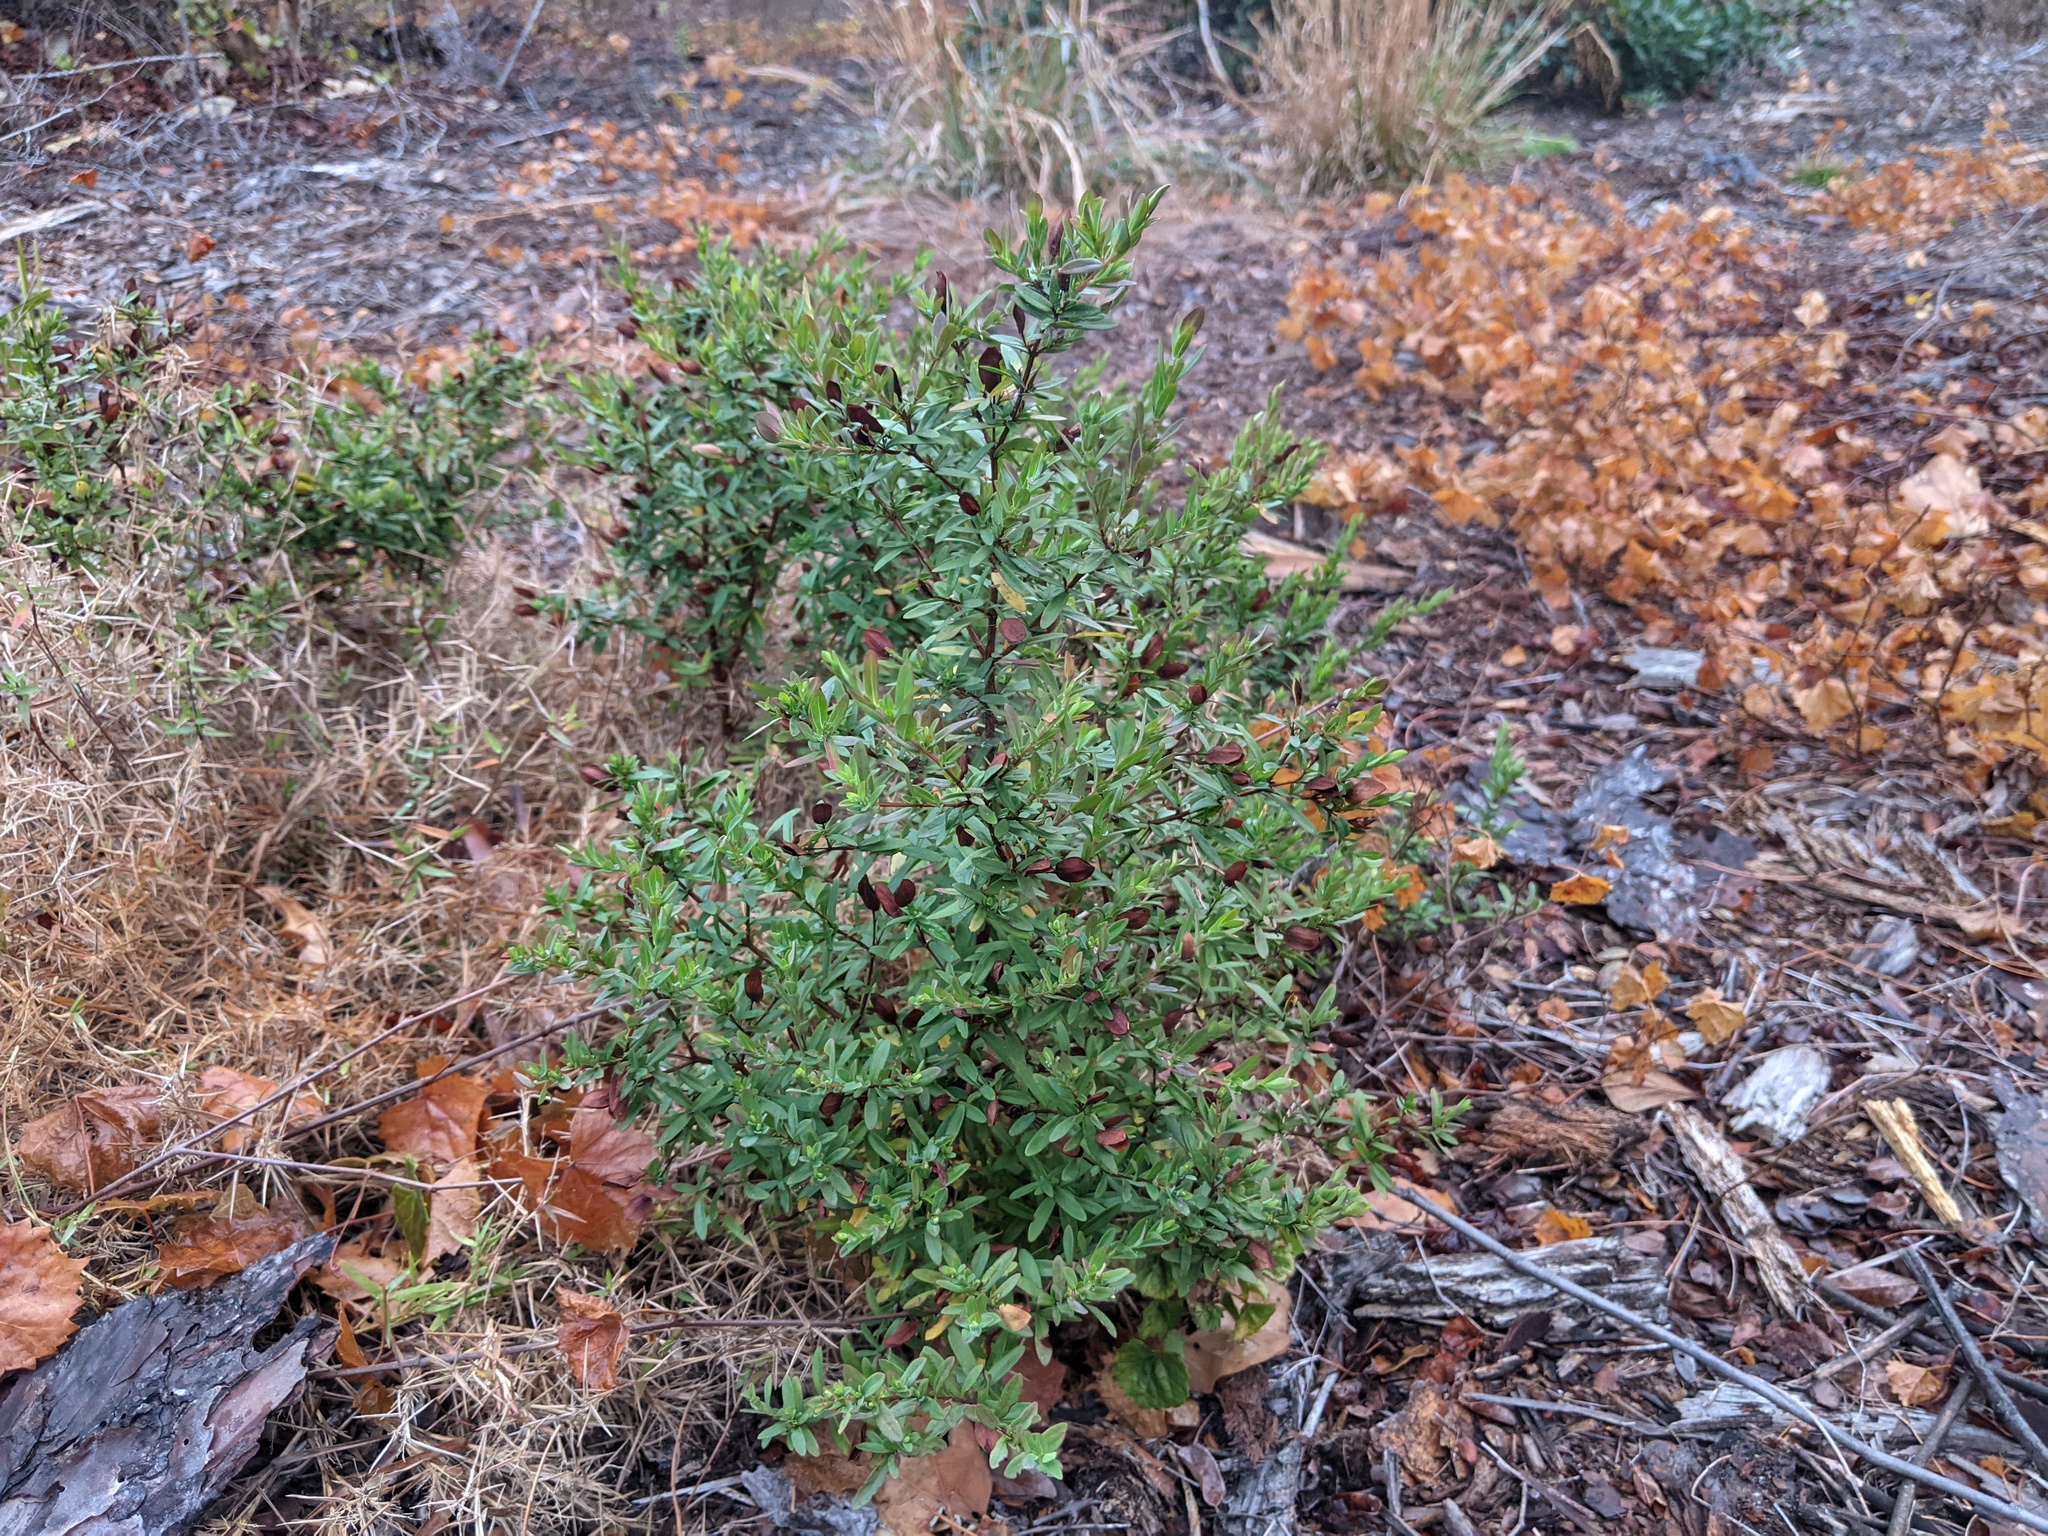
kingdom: Plantae
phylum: Tracheophyta
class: Magnoliopsida
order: Malpighiales
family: Hypericaceae
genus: Hypericum
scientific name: Hypericum hypericoides
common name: St. andrew's cross
